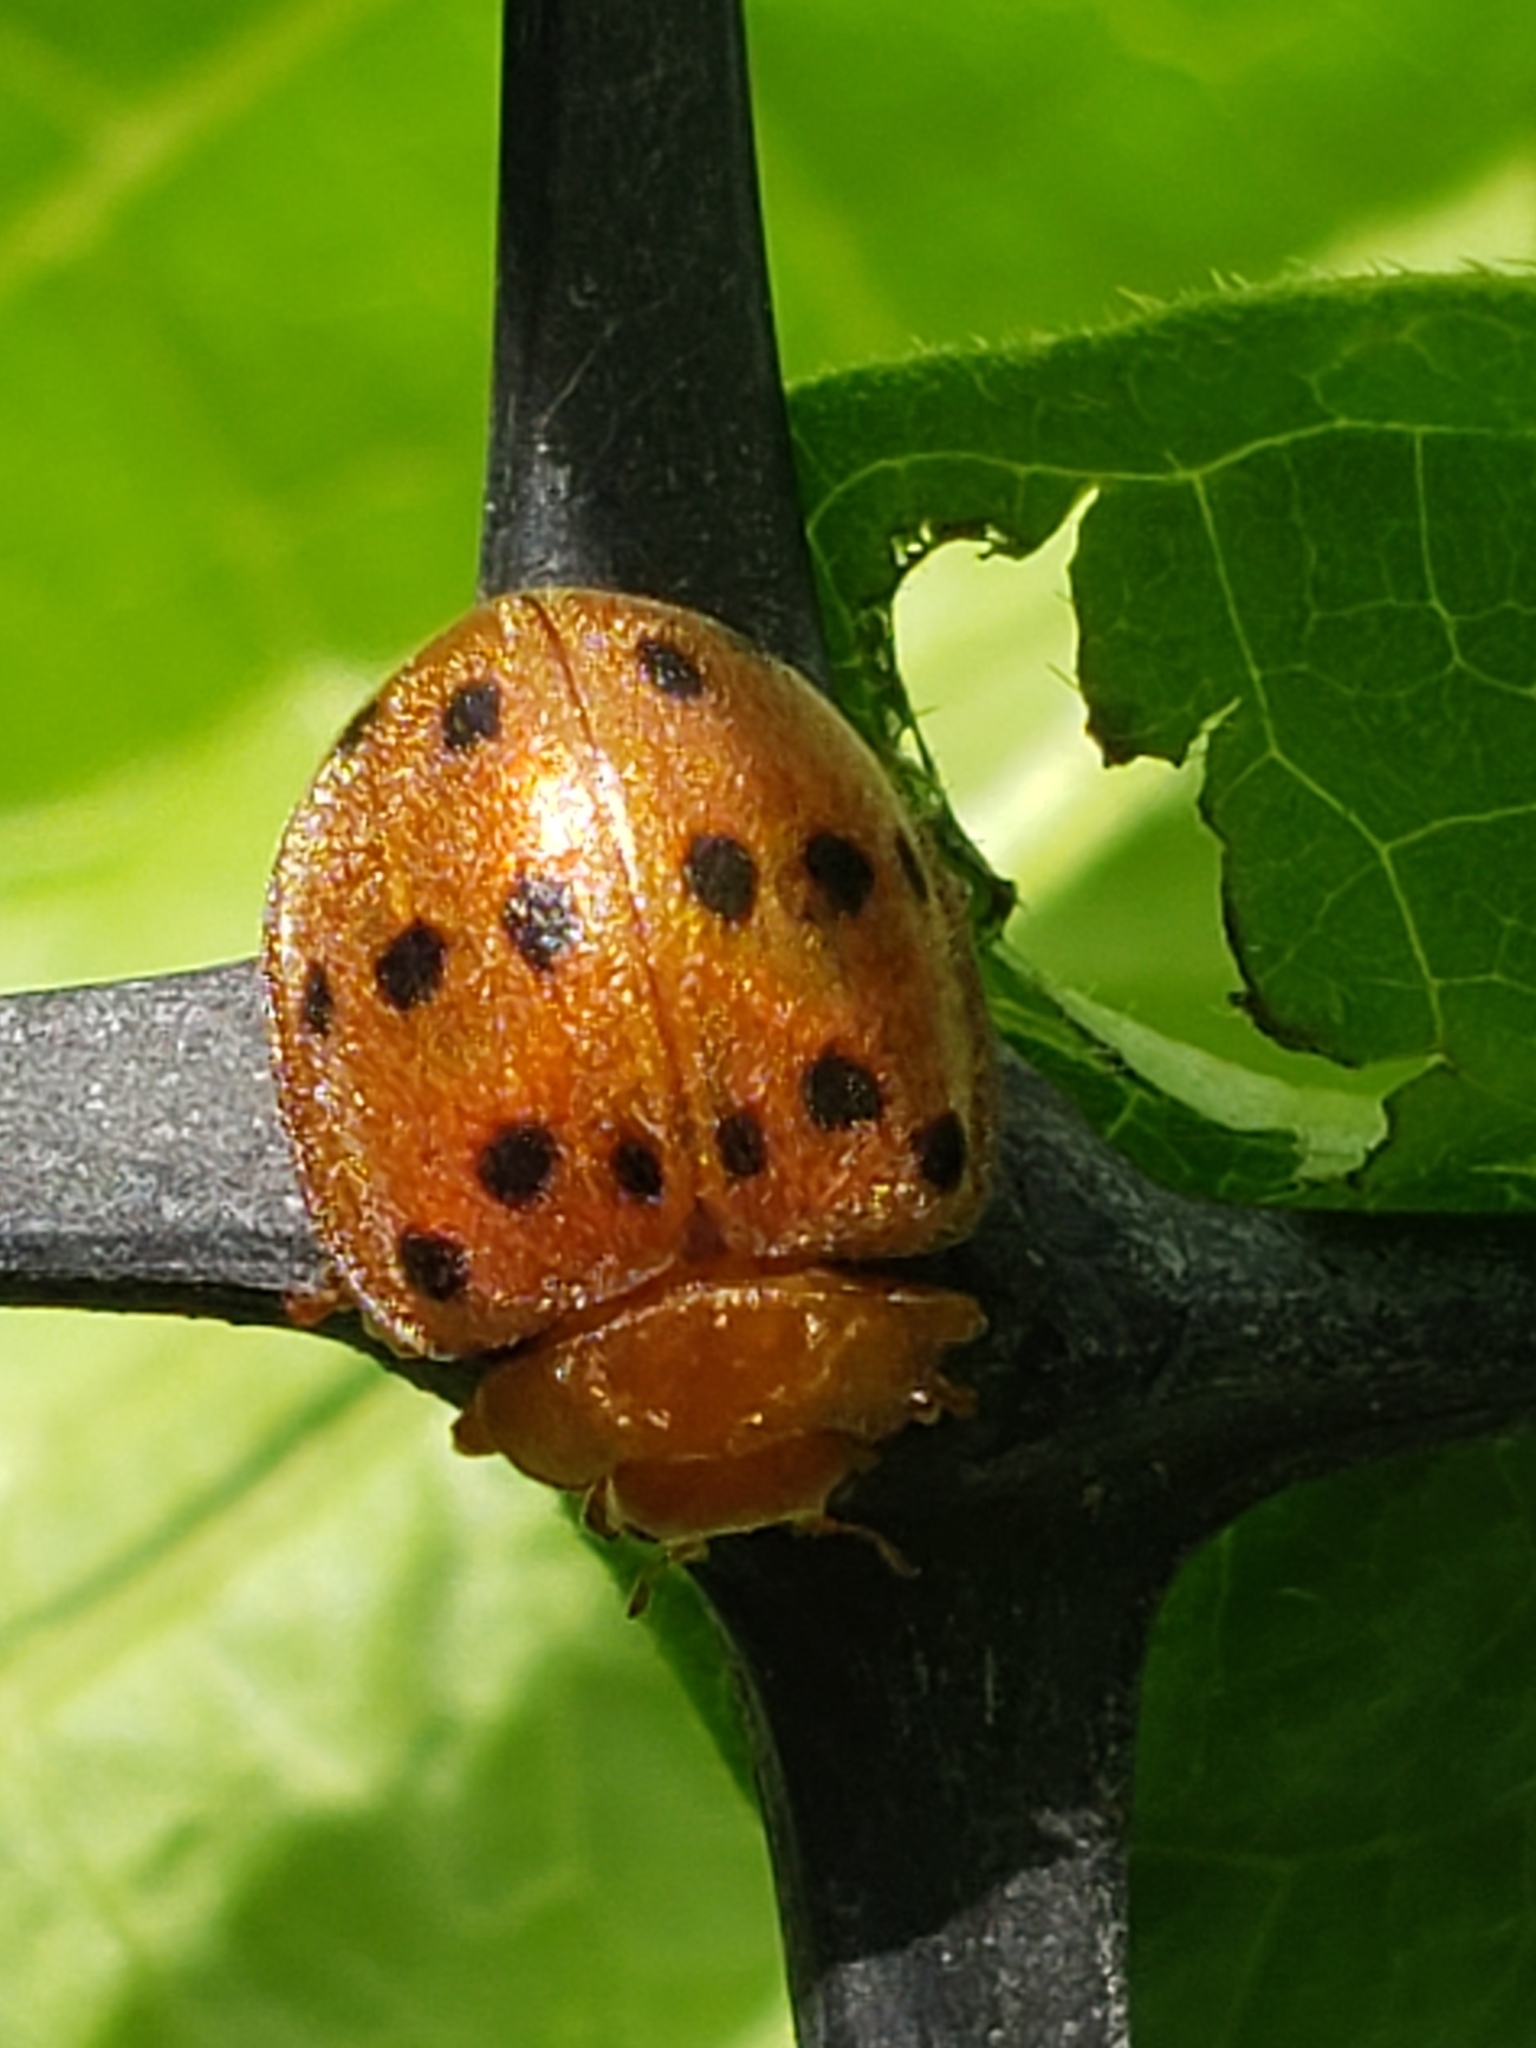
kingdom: Animalia
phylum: Arthropoda
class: Insecta
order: Coleoptera
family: Coccinellidae
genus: Epilachna
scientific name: Epilachna varivestis
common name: Ladybird beetle
